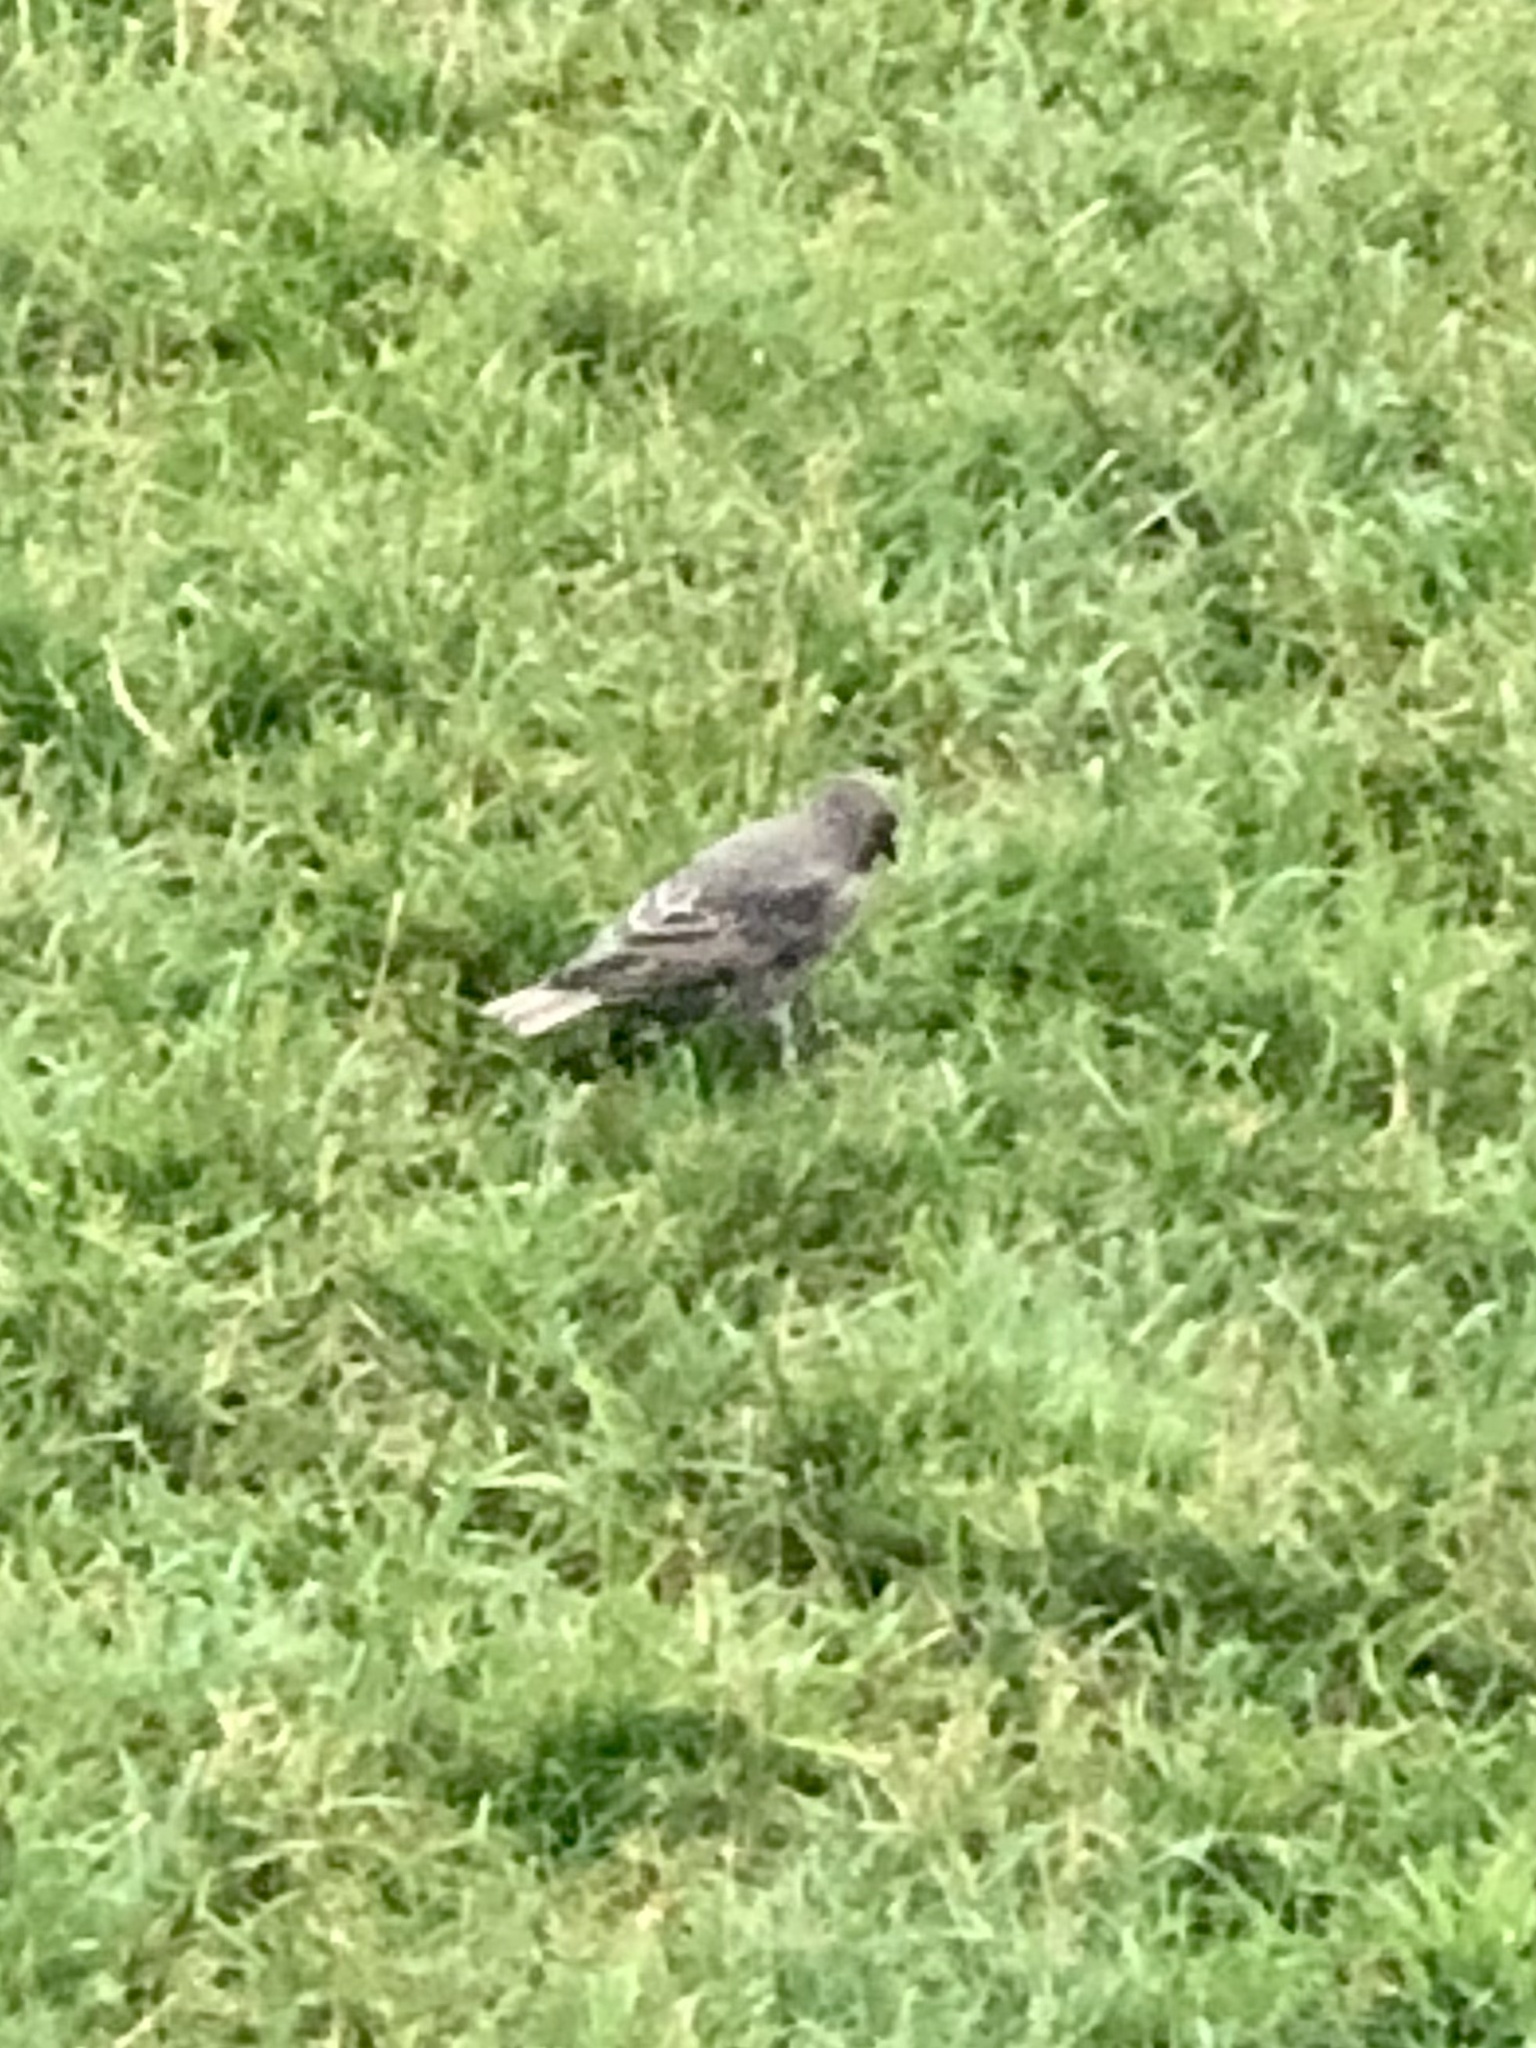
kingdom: Animalia
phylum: Chordata
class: Aves
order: Passeriformes
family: Icteridae
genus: Molothrus
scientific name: Molothrus ater
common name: Brown-headed cowbird
